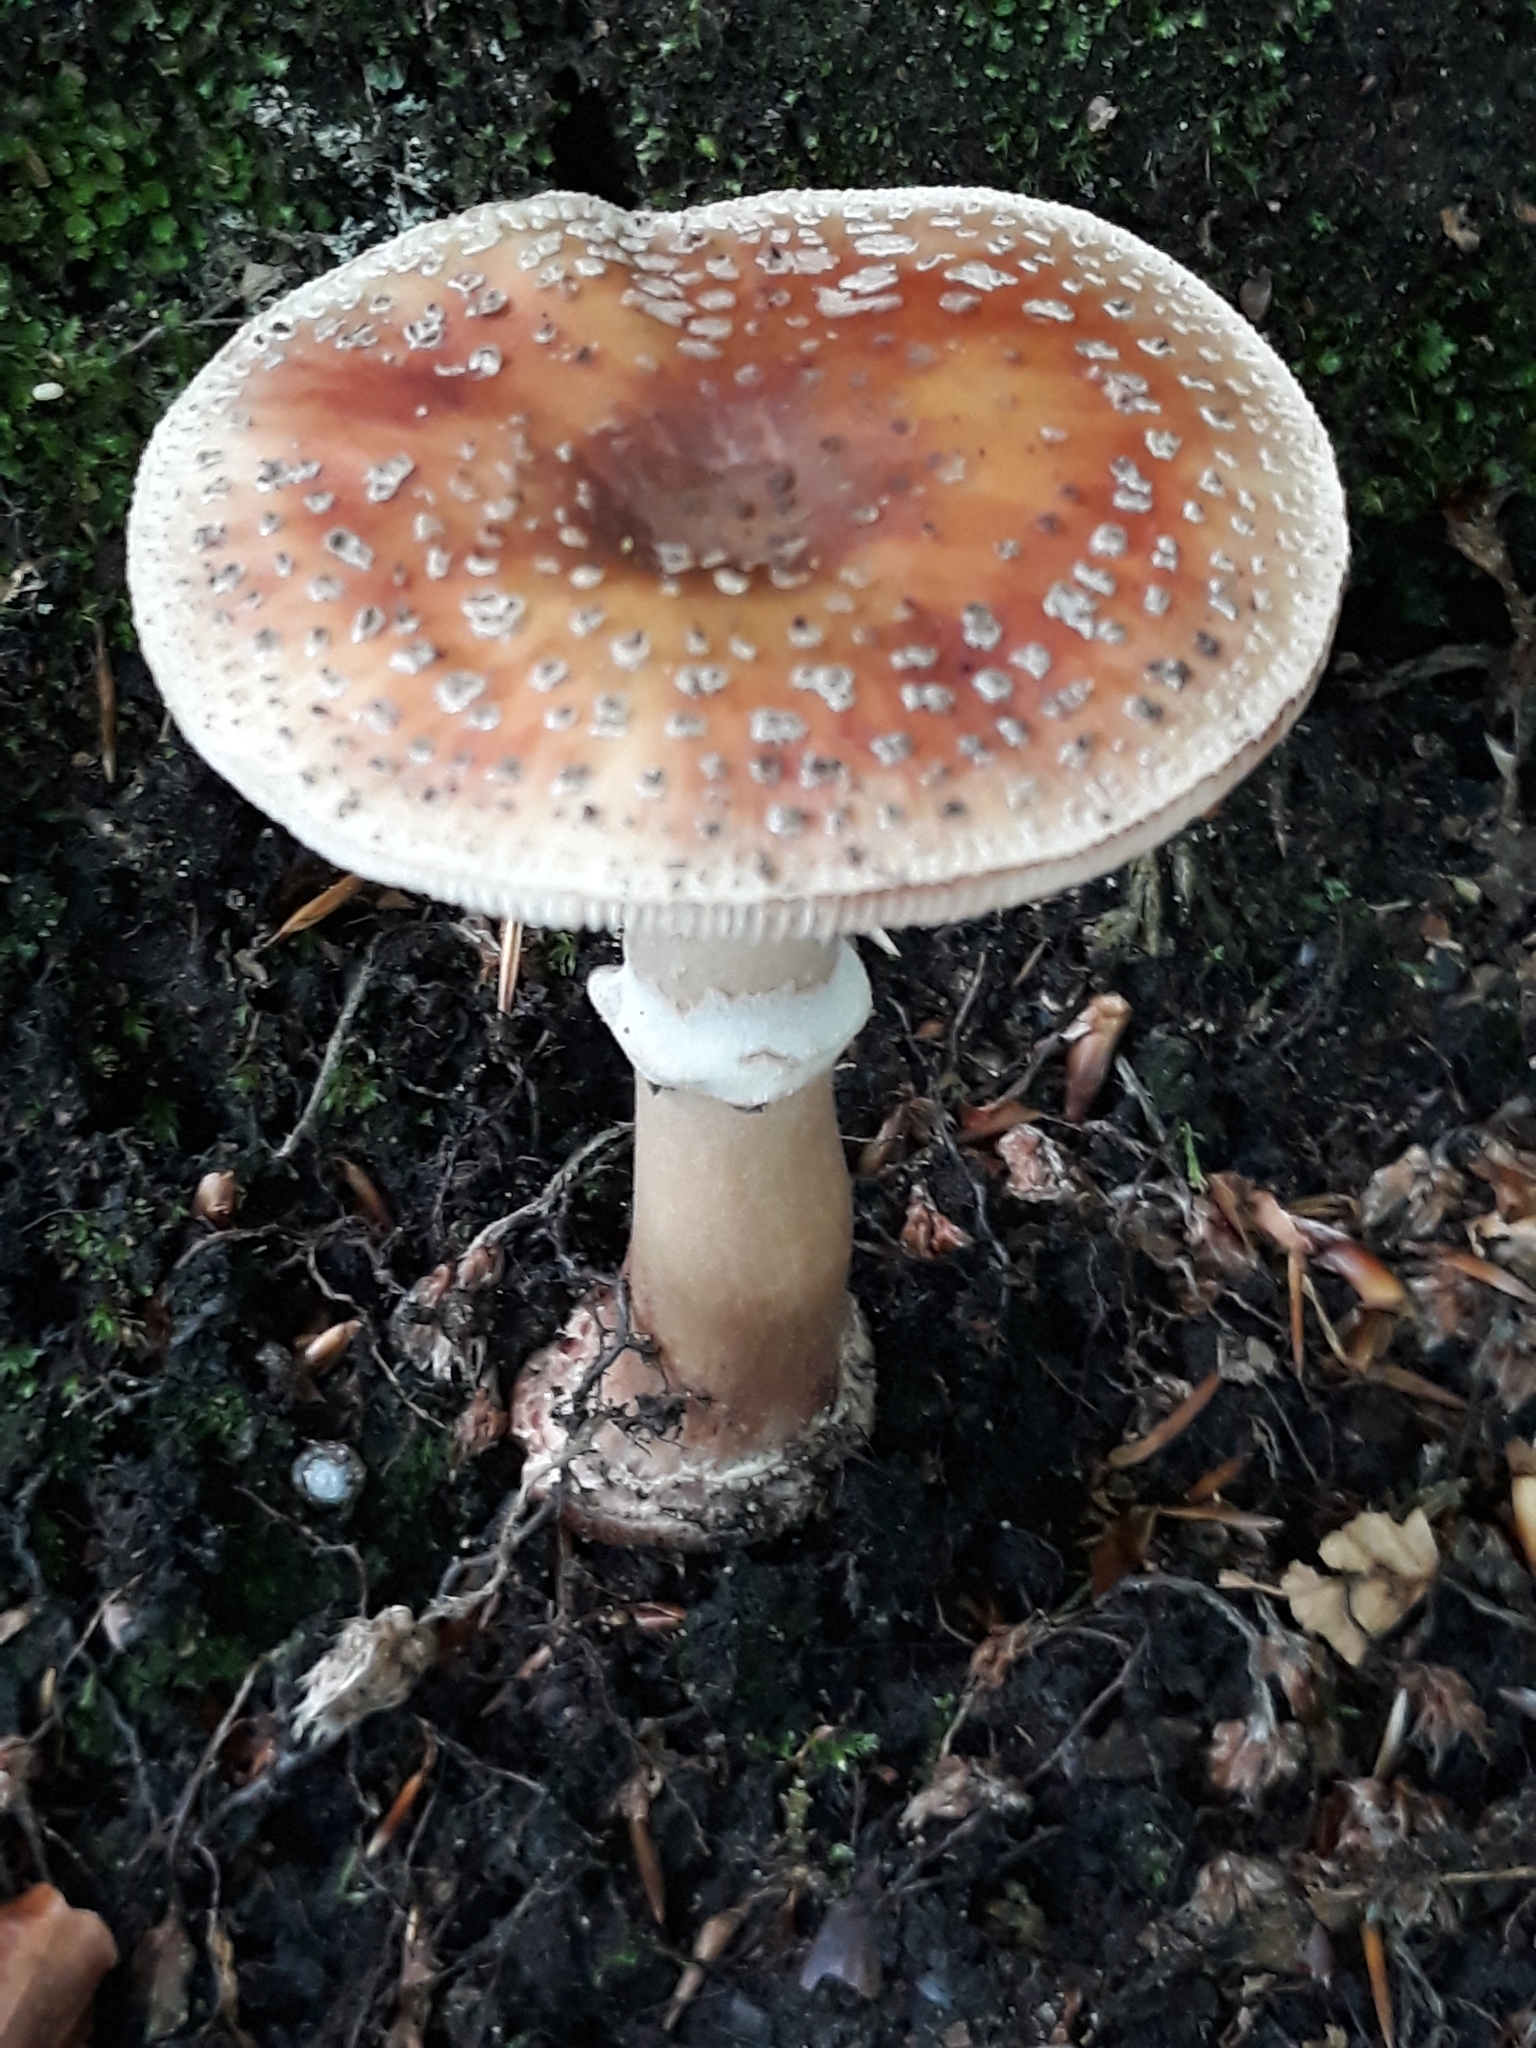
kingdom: Fungi
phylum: Basidiomycota
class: Agaricomycetes
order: Agaricales
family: Amanitaceae
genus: Amanita
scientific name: Amanita rubescens
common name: Blusher
